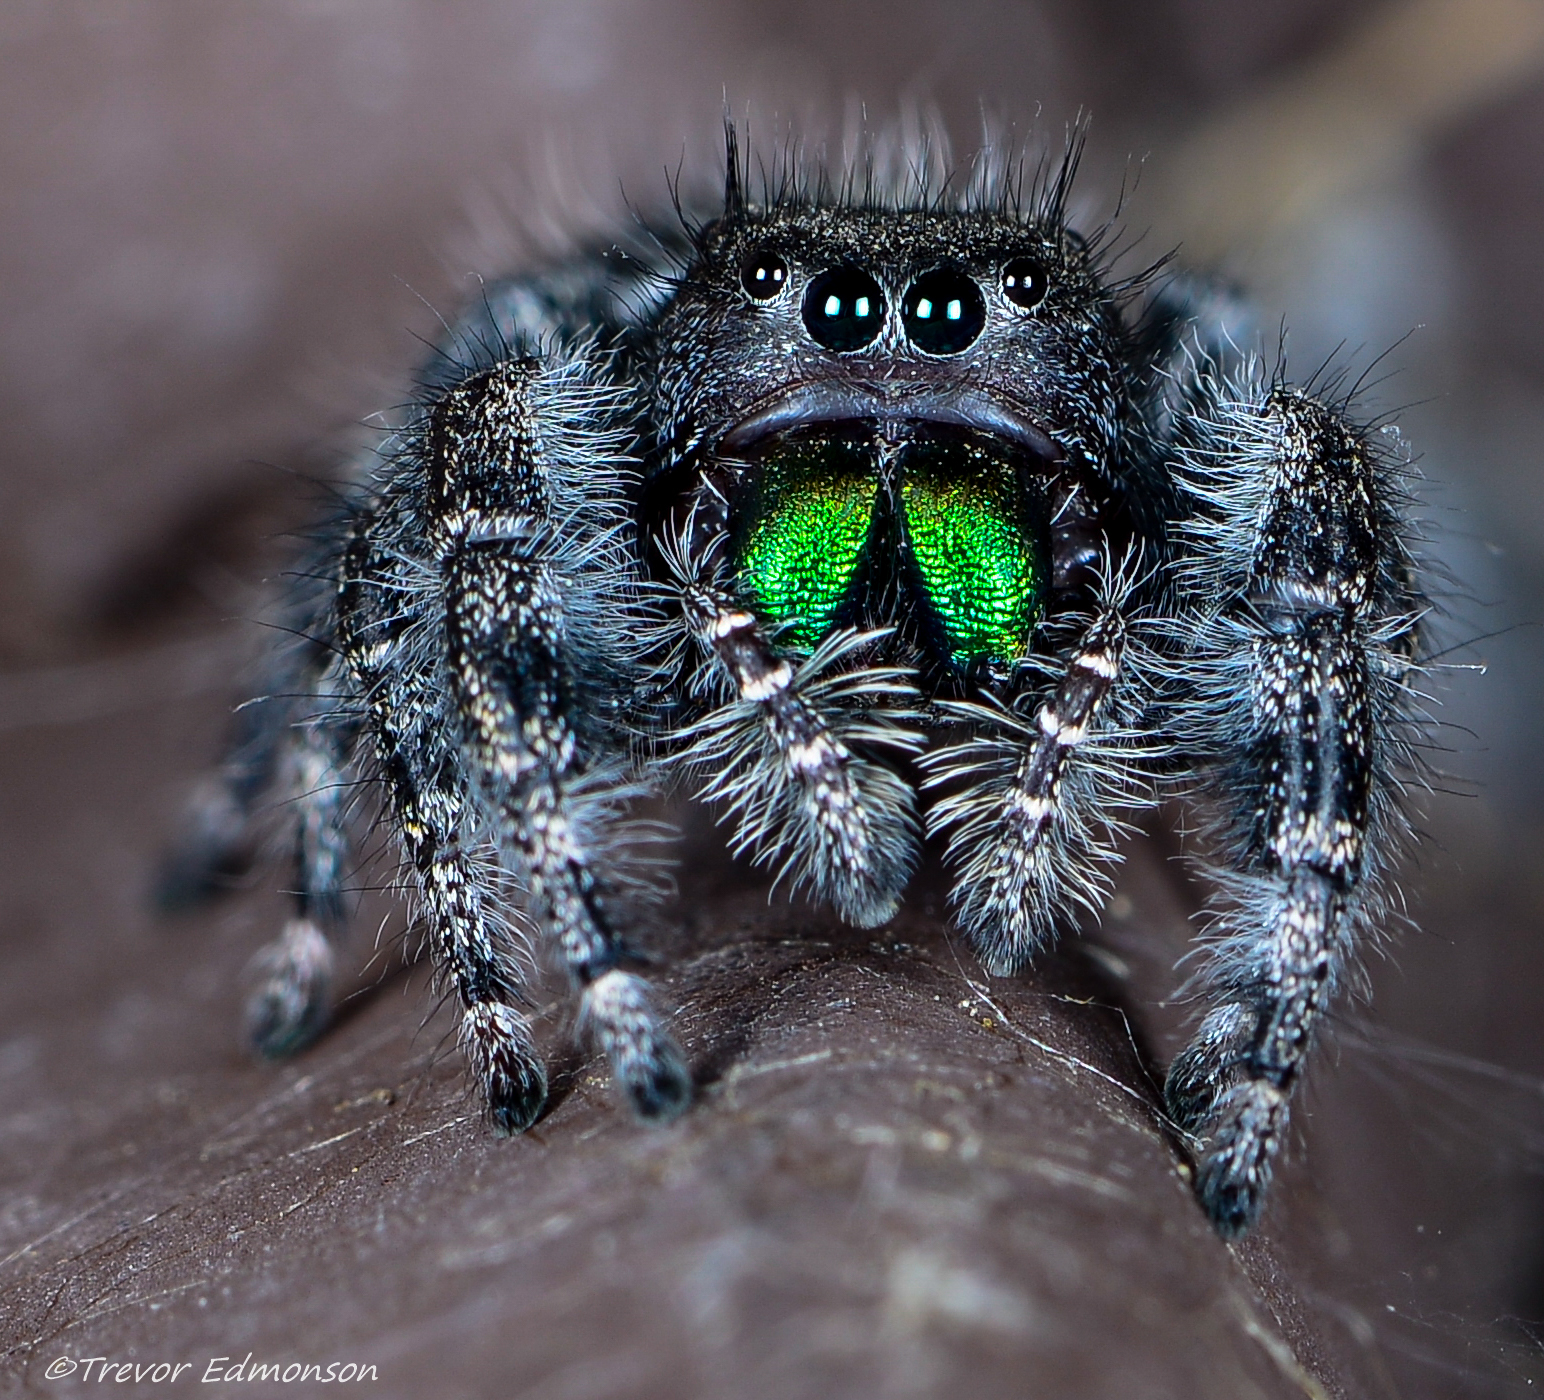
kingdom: Animalia
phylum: Arthropoda
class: Arachnida
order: Araneae
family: Salticidae
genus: Phidippus
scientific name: Phidippus audax
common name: Bold jumper
